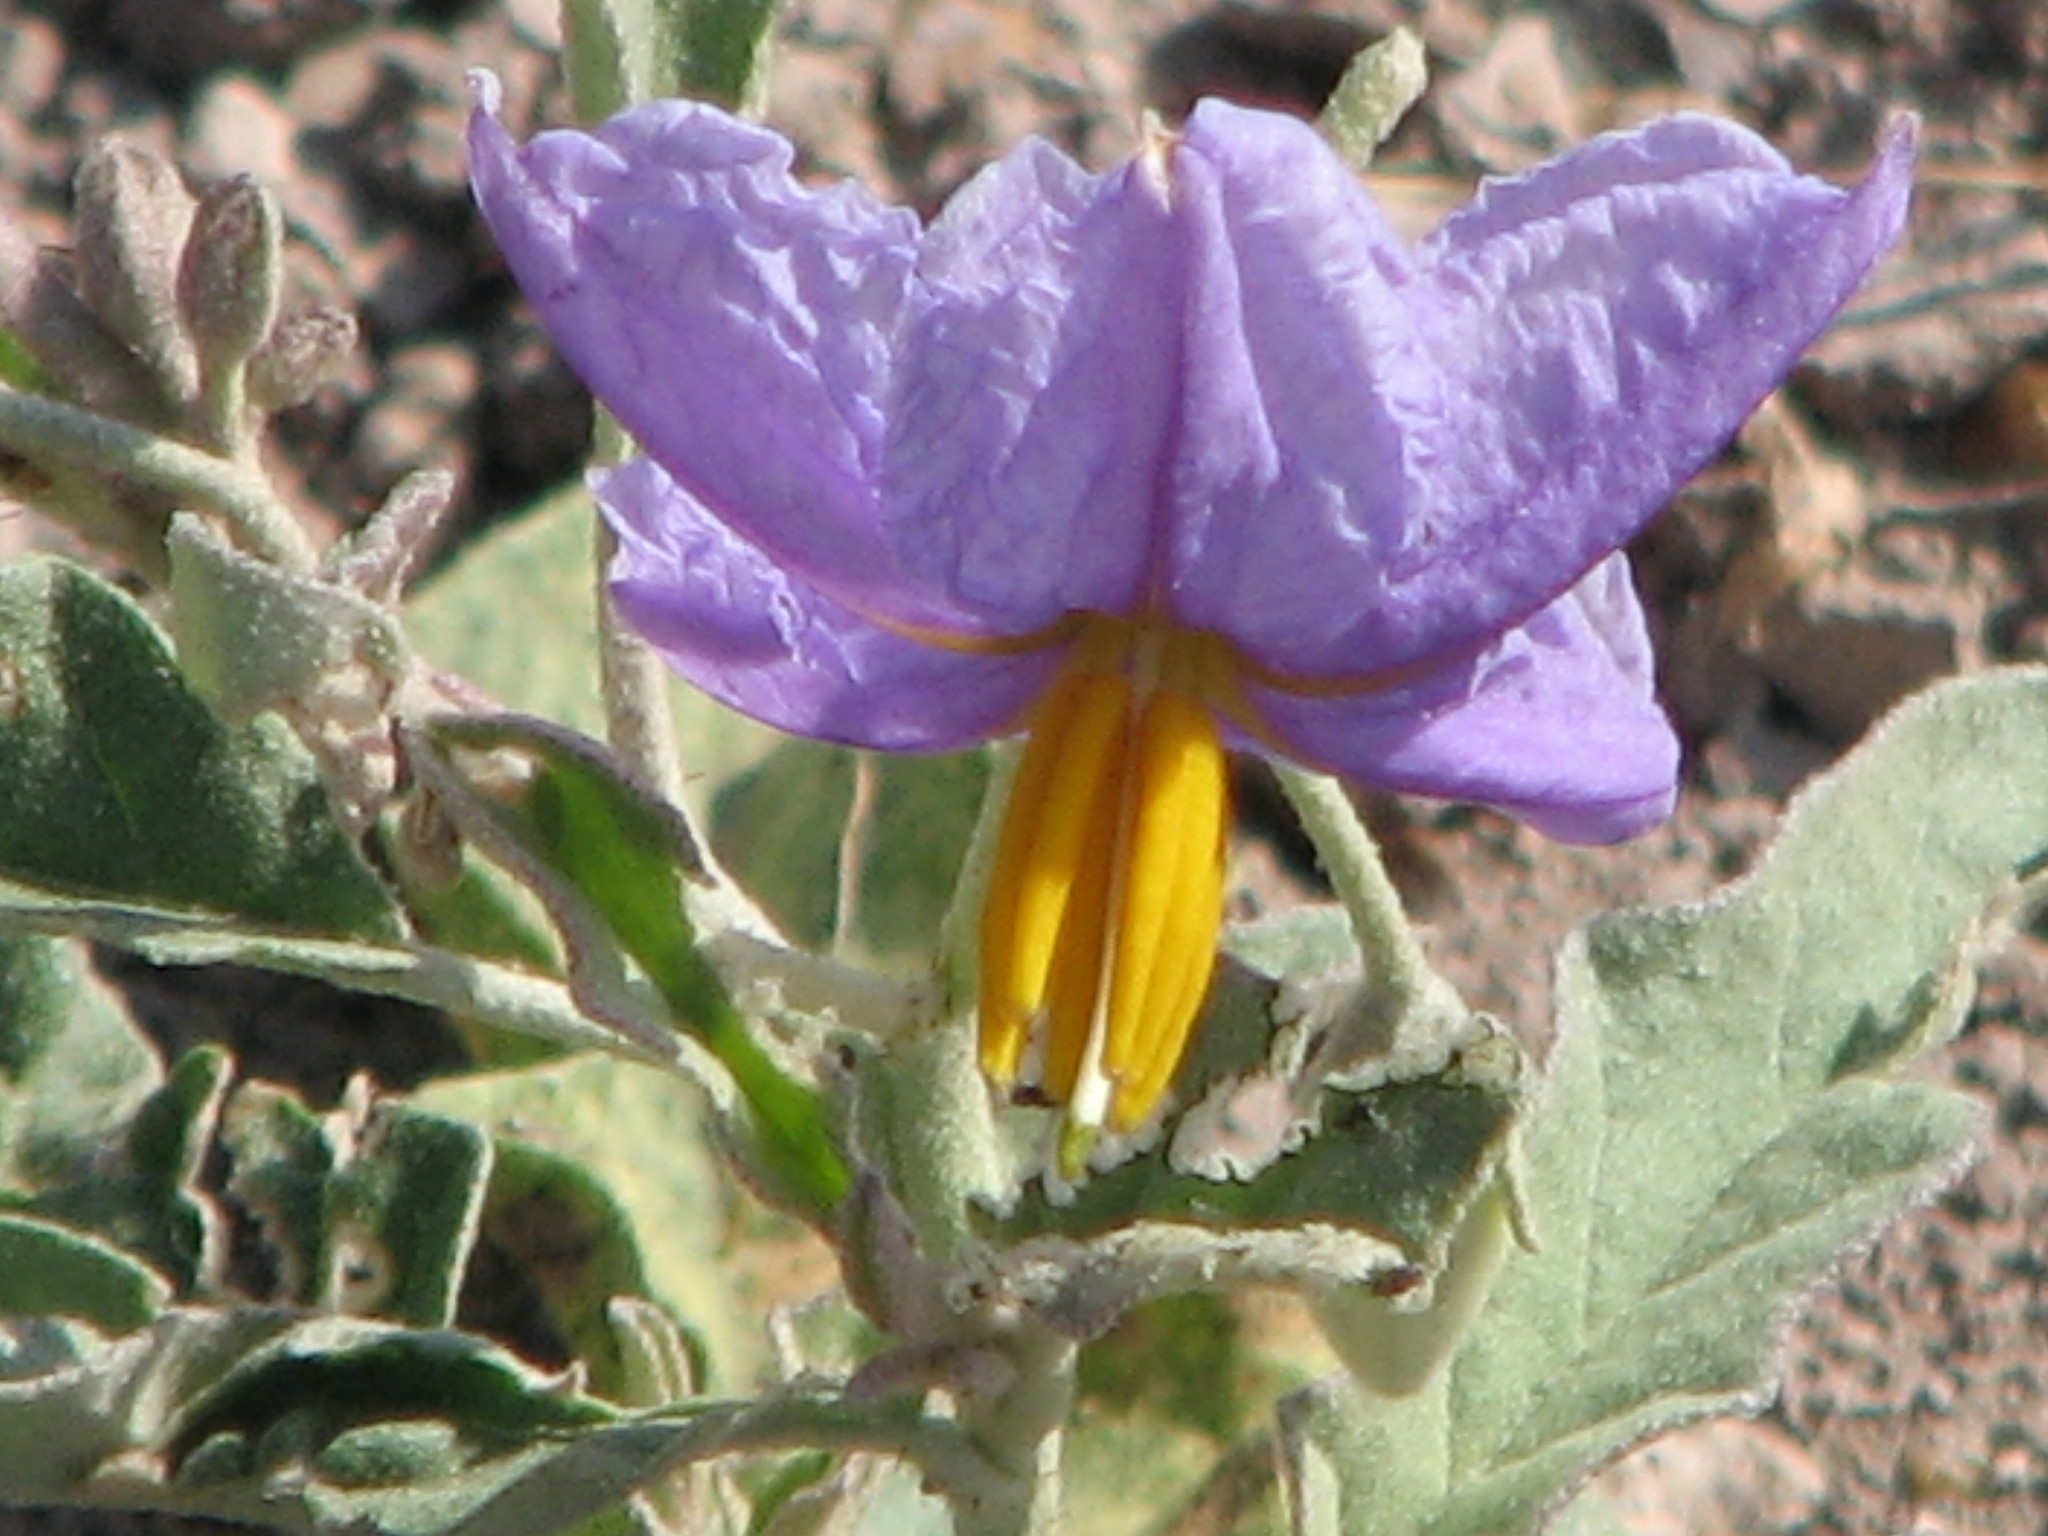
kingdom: Plantae
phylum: Tracheophyta
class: Magnoliopsida
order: Solanales
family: Solanaceae
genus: Solanum
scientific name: Solanum elaeagnifolium
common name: Silverleaf nightshade
